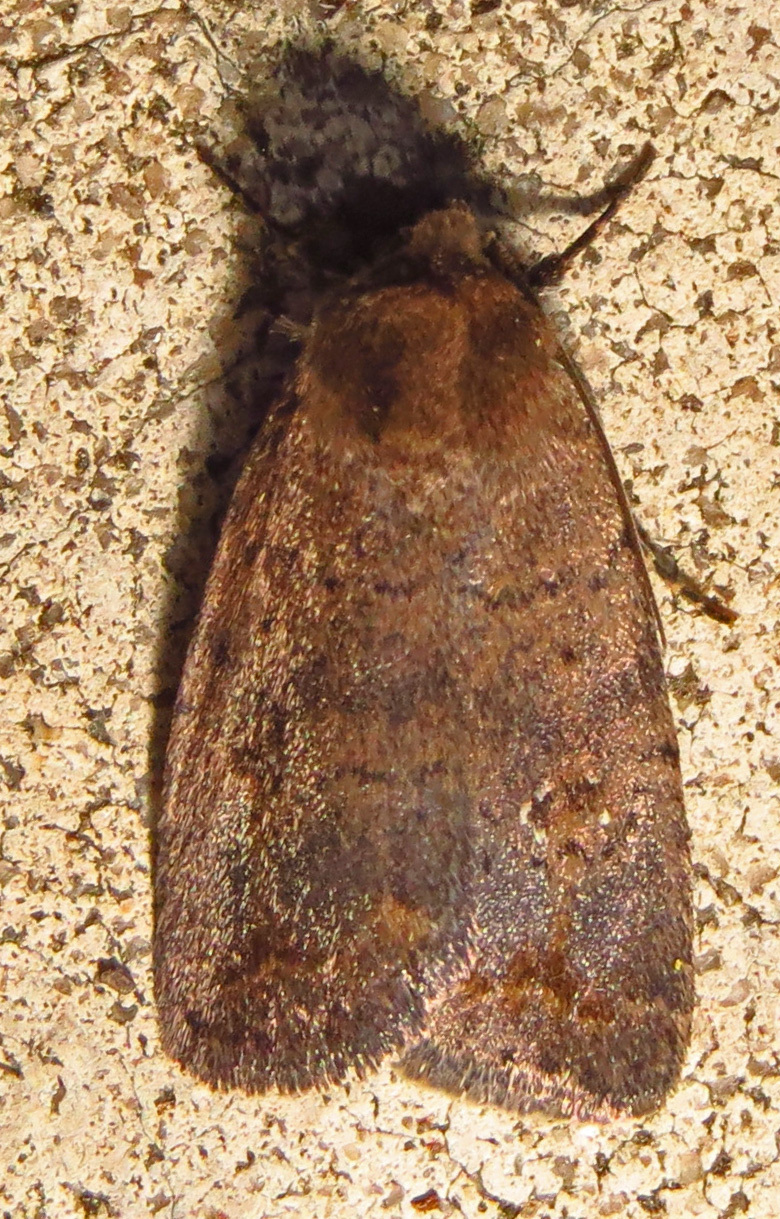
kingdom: Animalia
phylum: Arthropoda
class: Insecta
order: Lepidoptera
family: Noctuidae
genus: Athetis
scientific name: Athetis tarda
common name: Slowpoke moth
